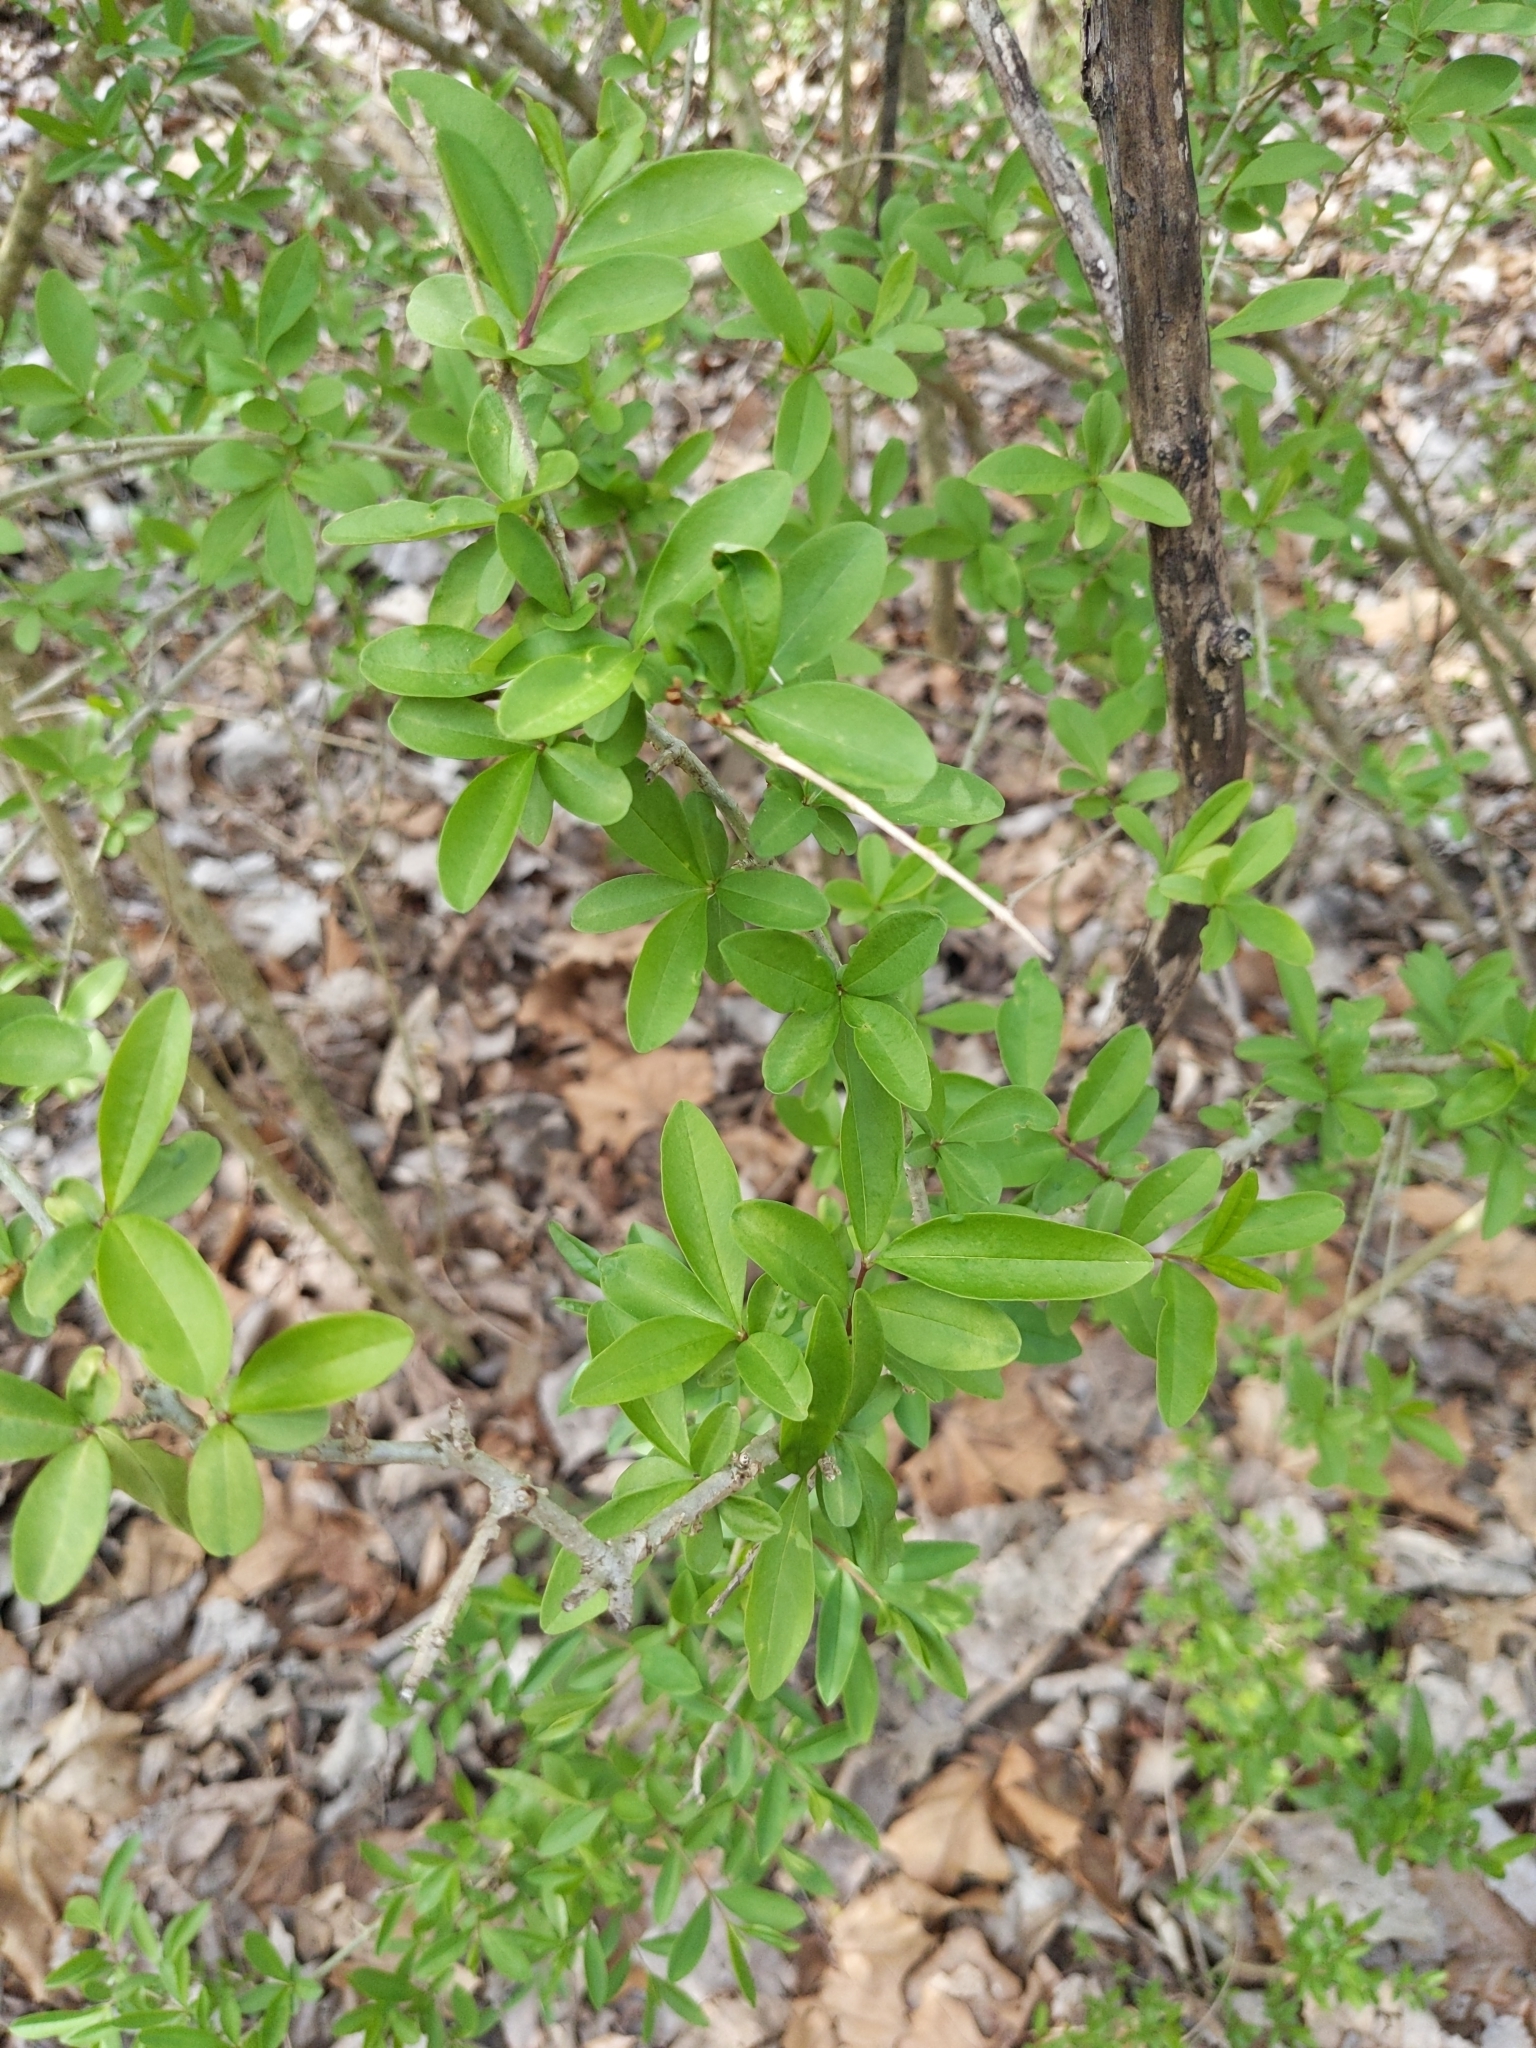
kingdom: Plantae
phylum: Tracheophyta
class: Magnoliopsida
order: Lamiales
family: Oleaceae
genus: Ligustrum
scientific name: Ligustrum obtusifolium
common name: Border privet
